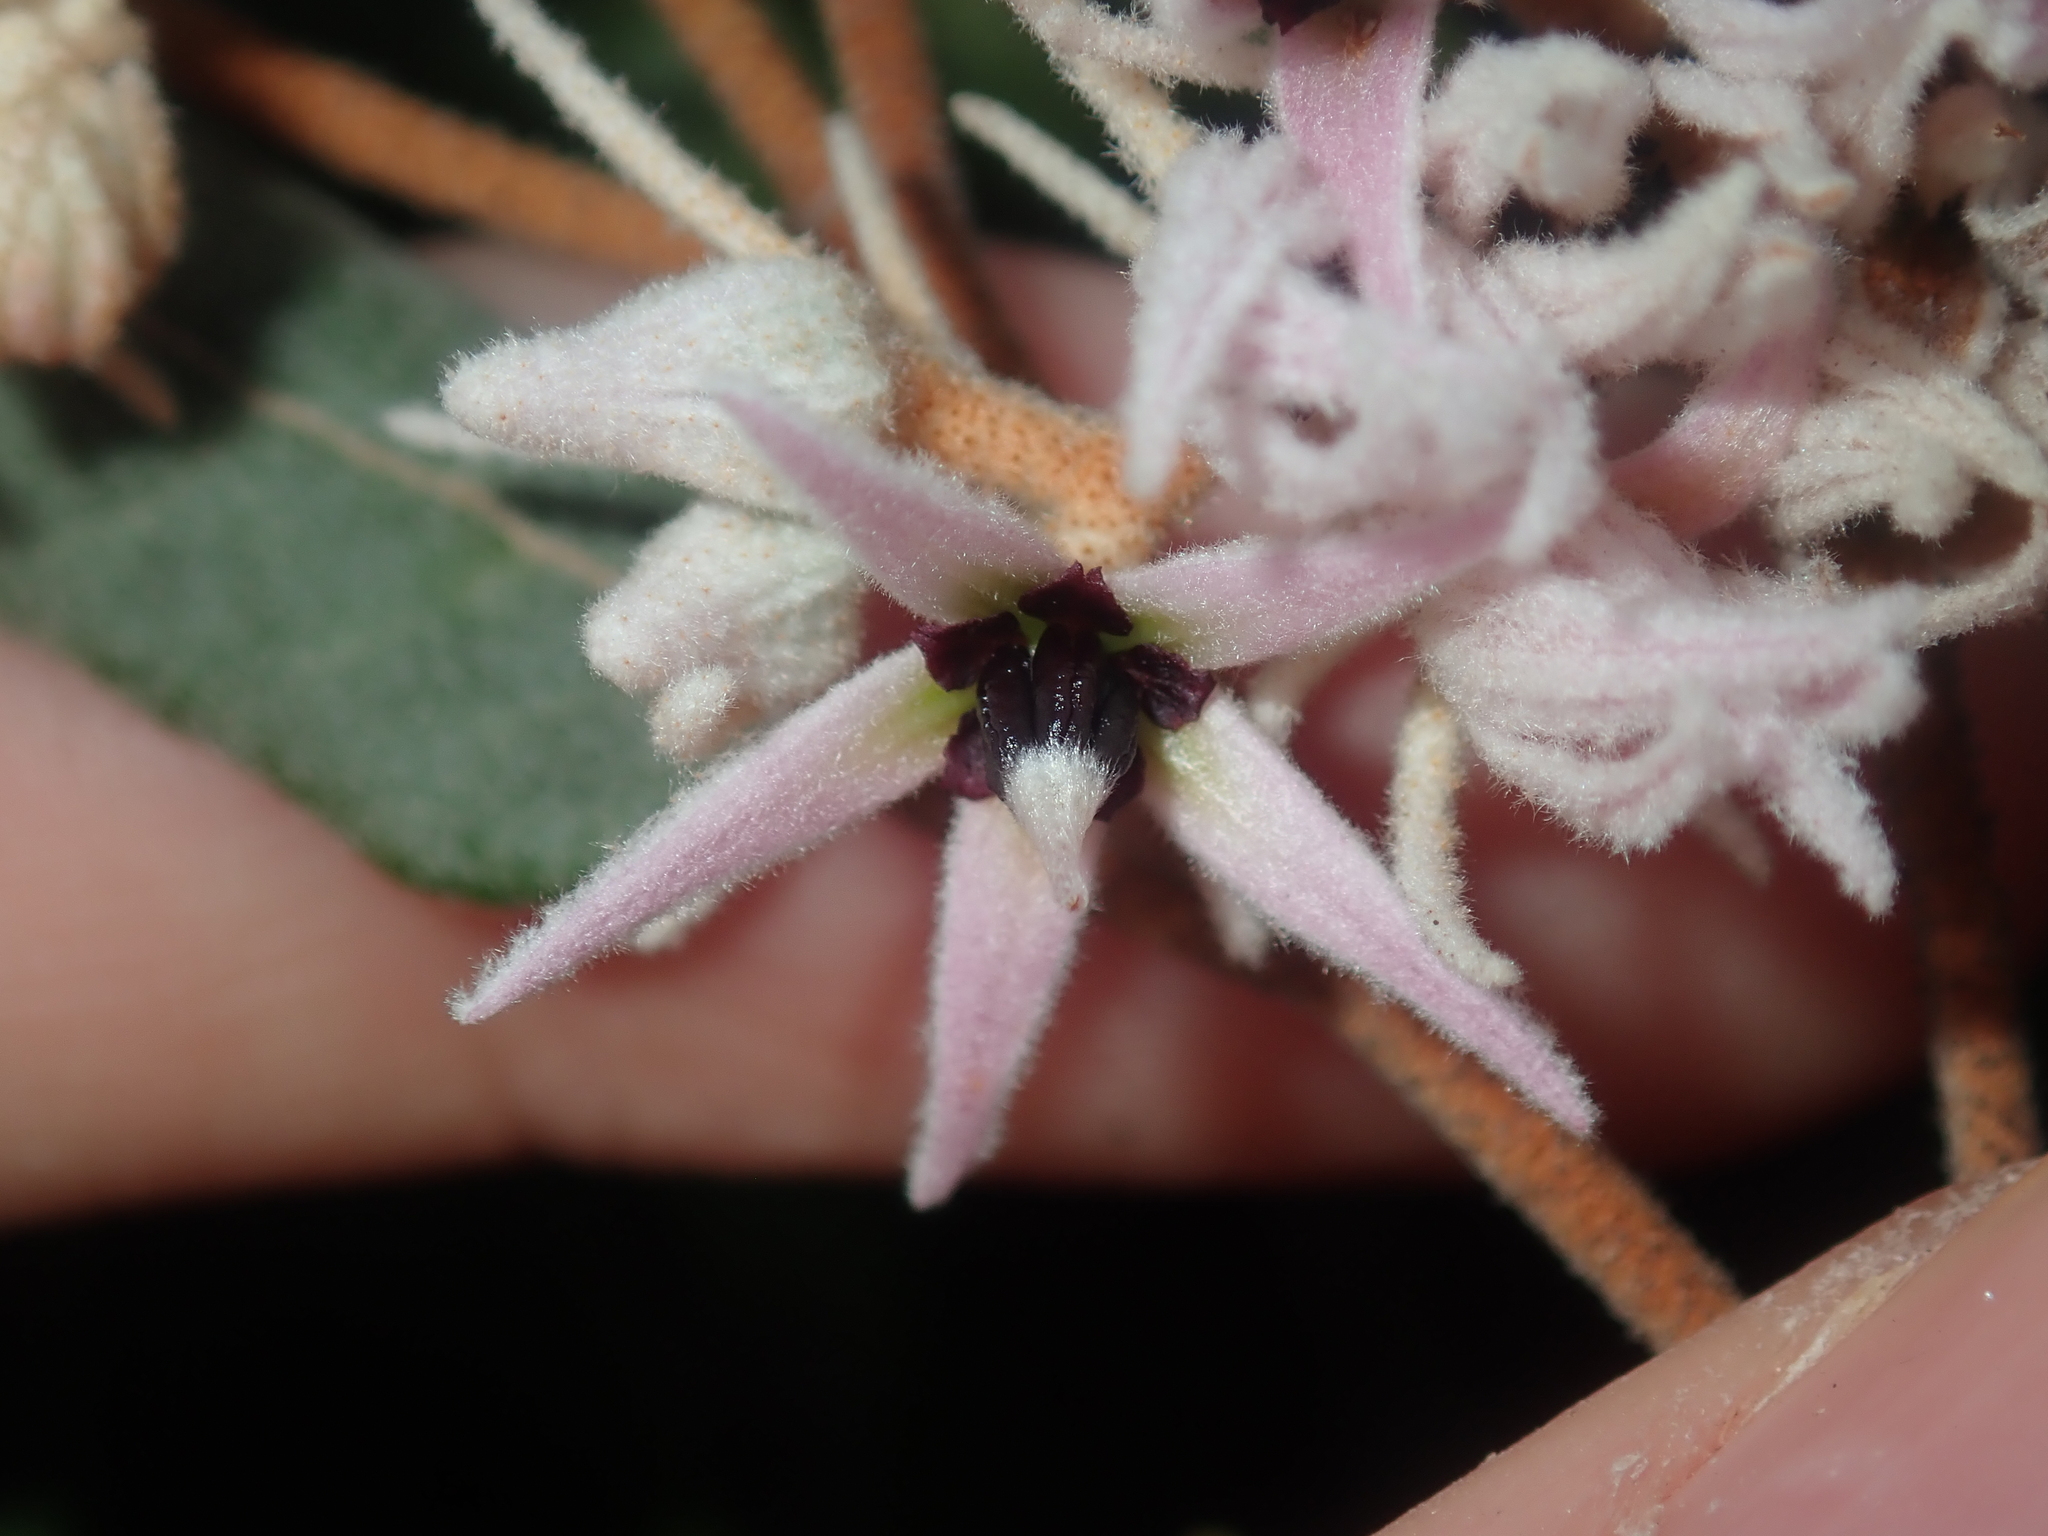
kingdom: Plantae
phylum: Tracheophyta
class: Magnoliopsida
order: Malvales
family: Malvaceae
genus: Lasiopetalum
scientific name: Lasiopetalum drummondii
